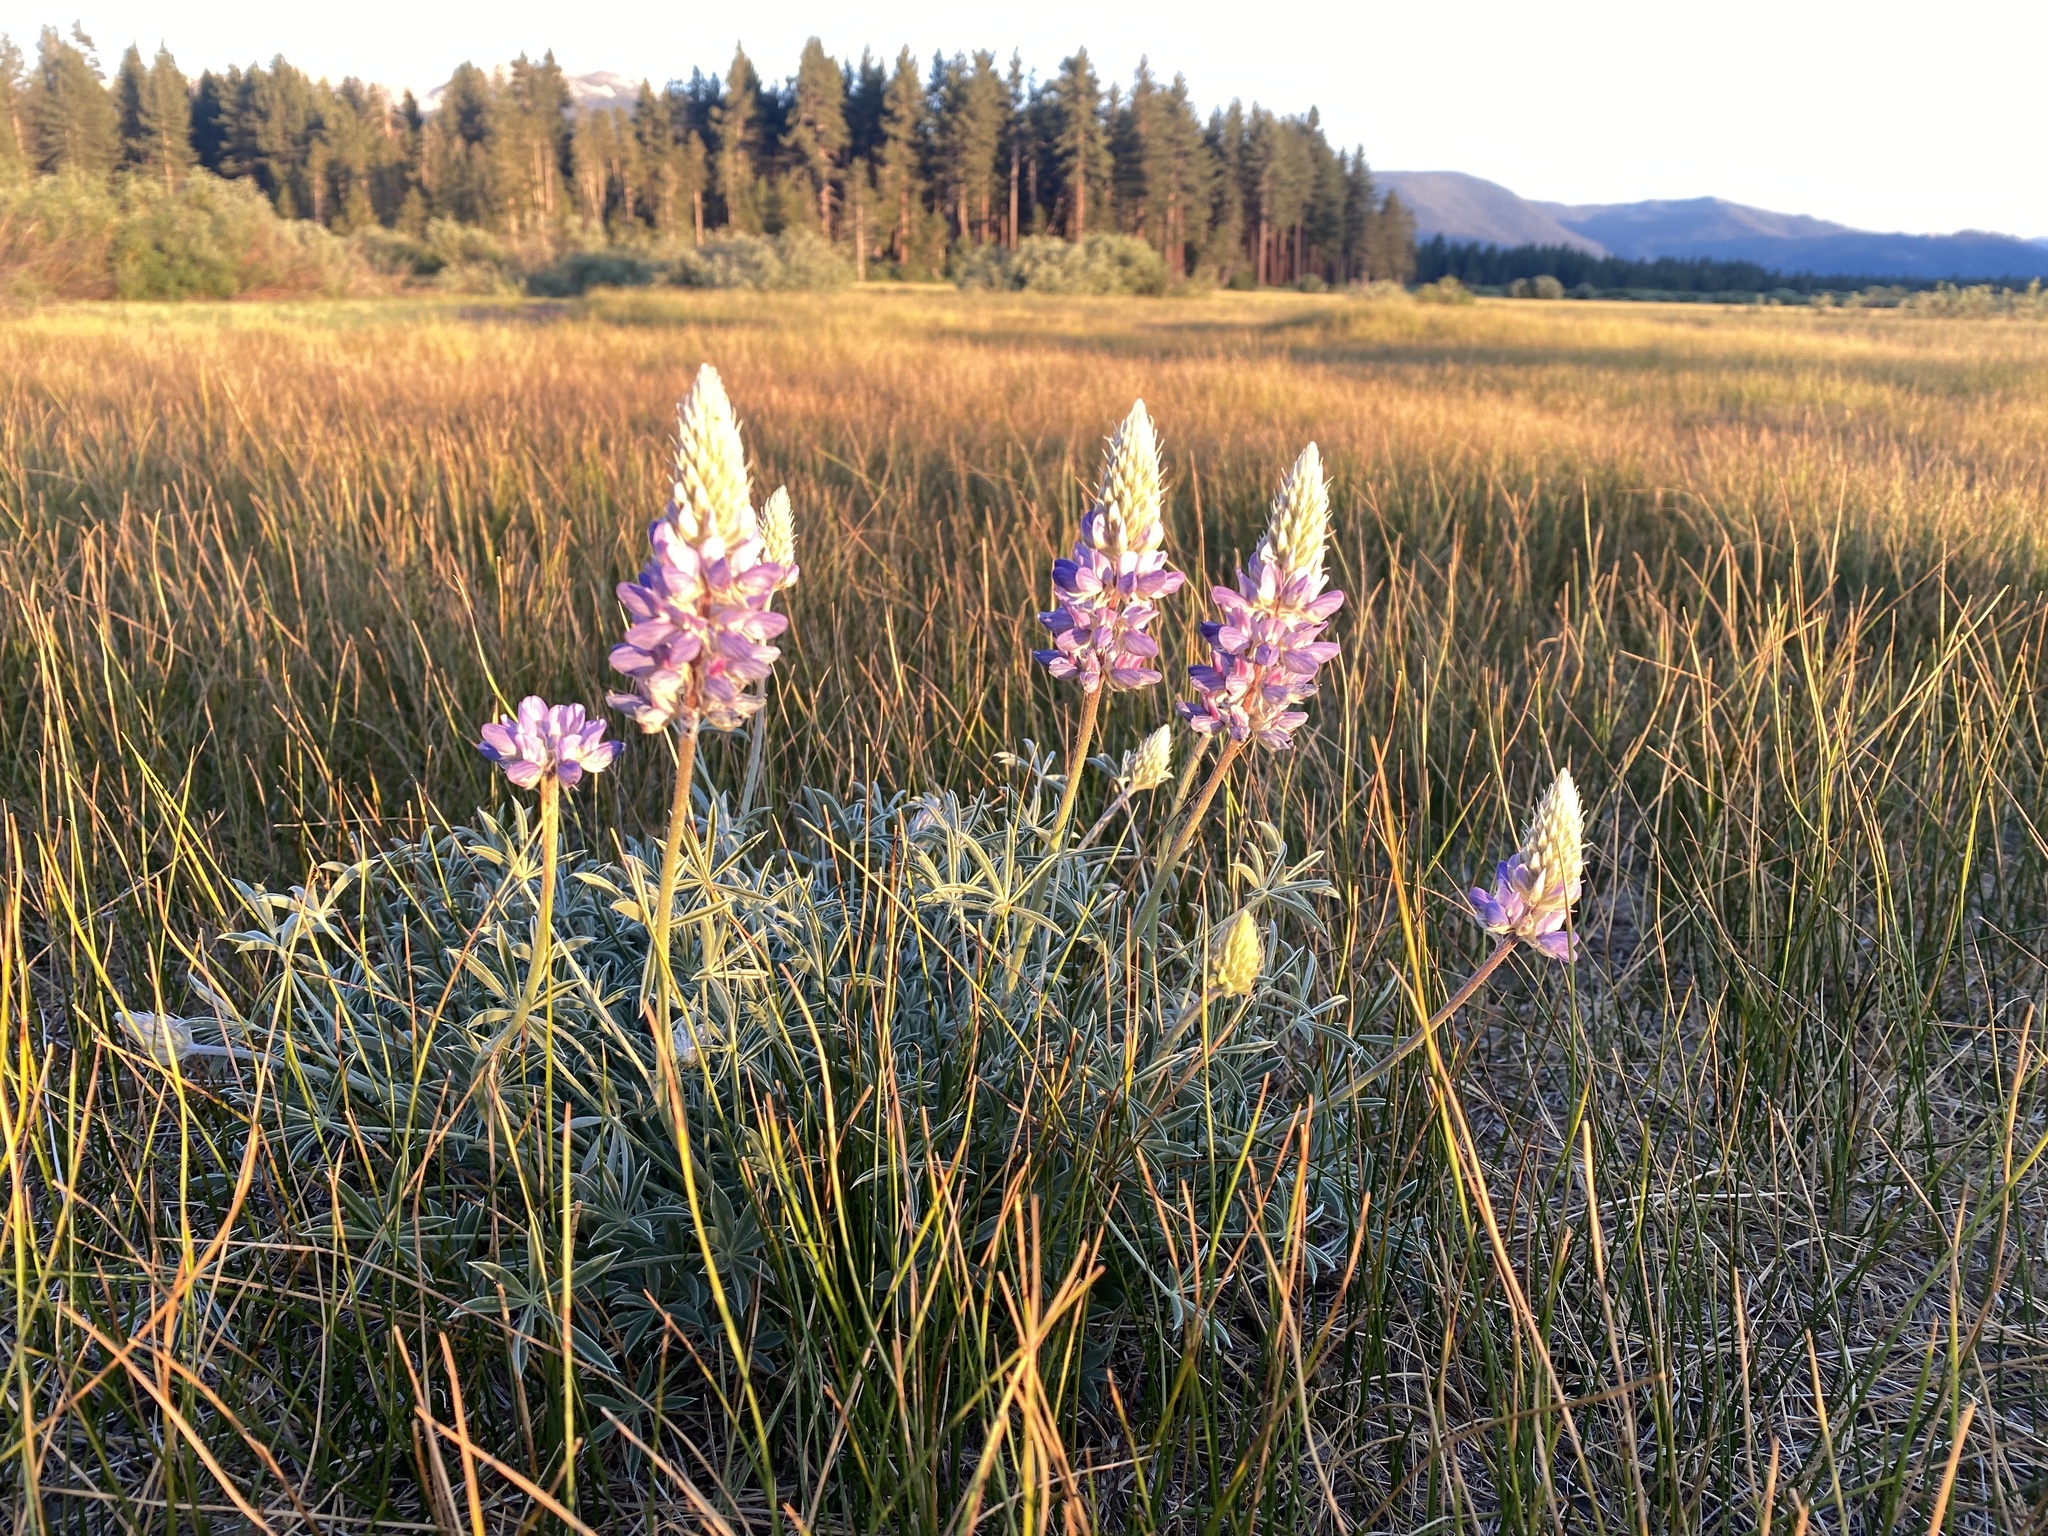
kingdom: Plantae
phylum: Tracheophyta
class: Magnoliopsida
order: Fabales
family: Fabaceae
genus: Lupinus
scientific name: Lupinus lepidus
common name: Prairie lupine
